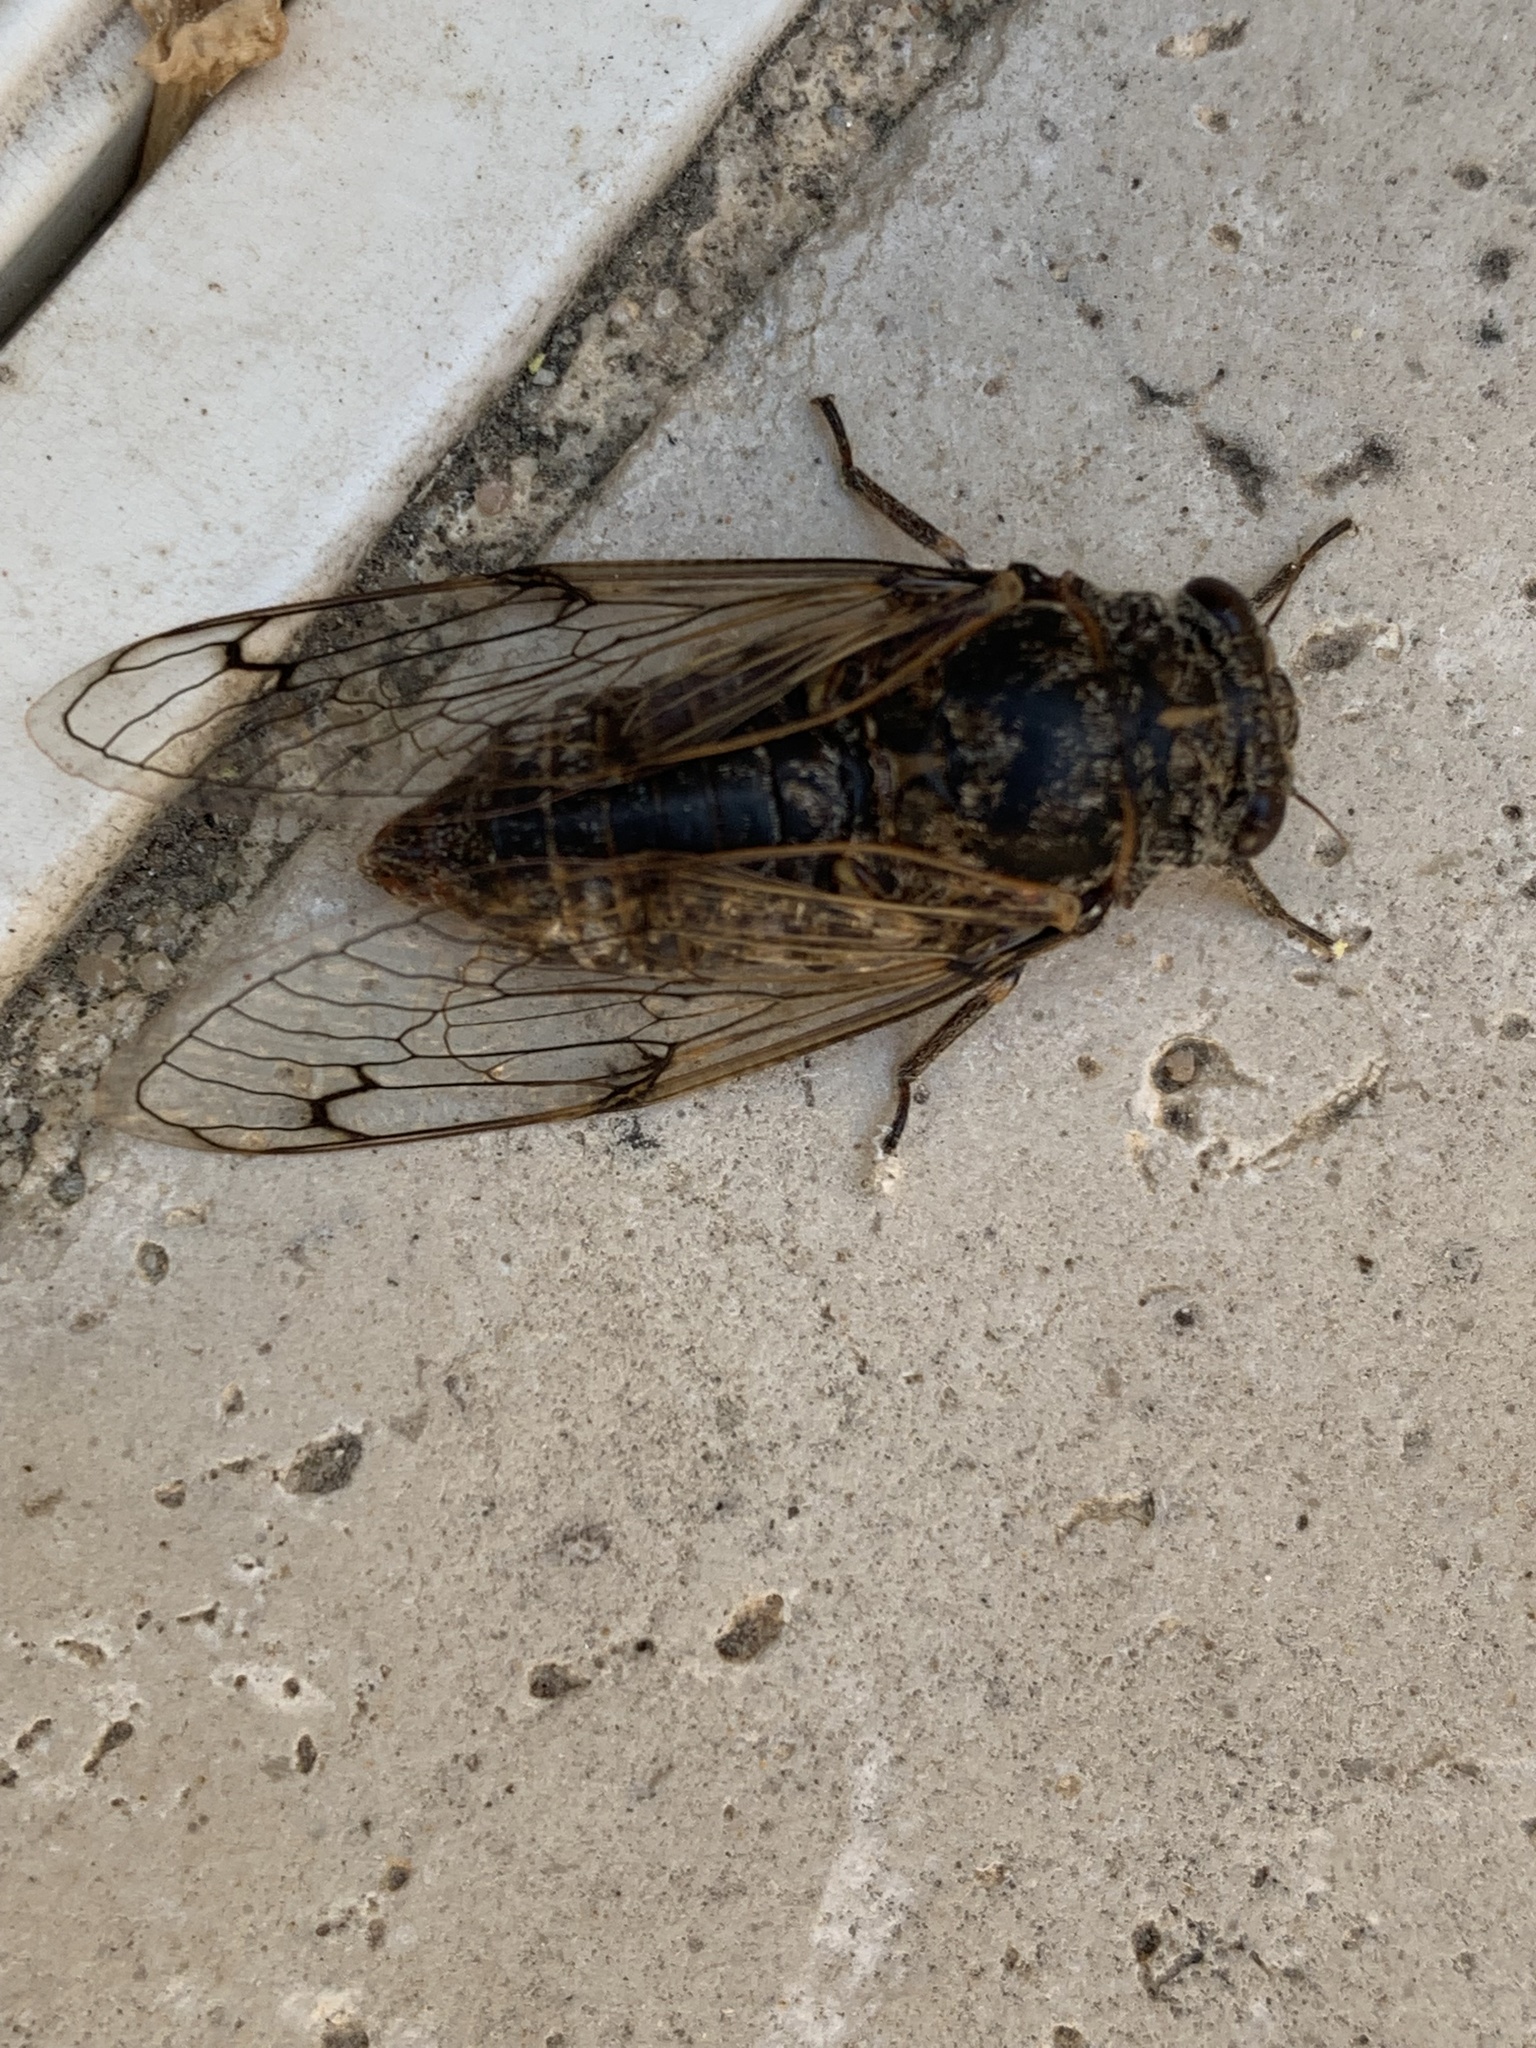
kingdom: Animalia
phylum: Arthropoda
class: Insecta
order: Hemiptera
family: Cicadidae
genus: Cicadatra
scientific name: Cicadatra atra
